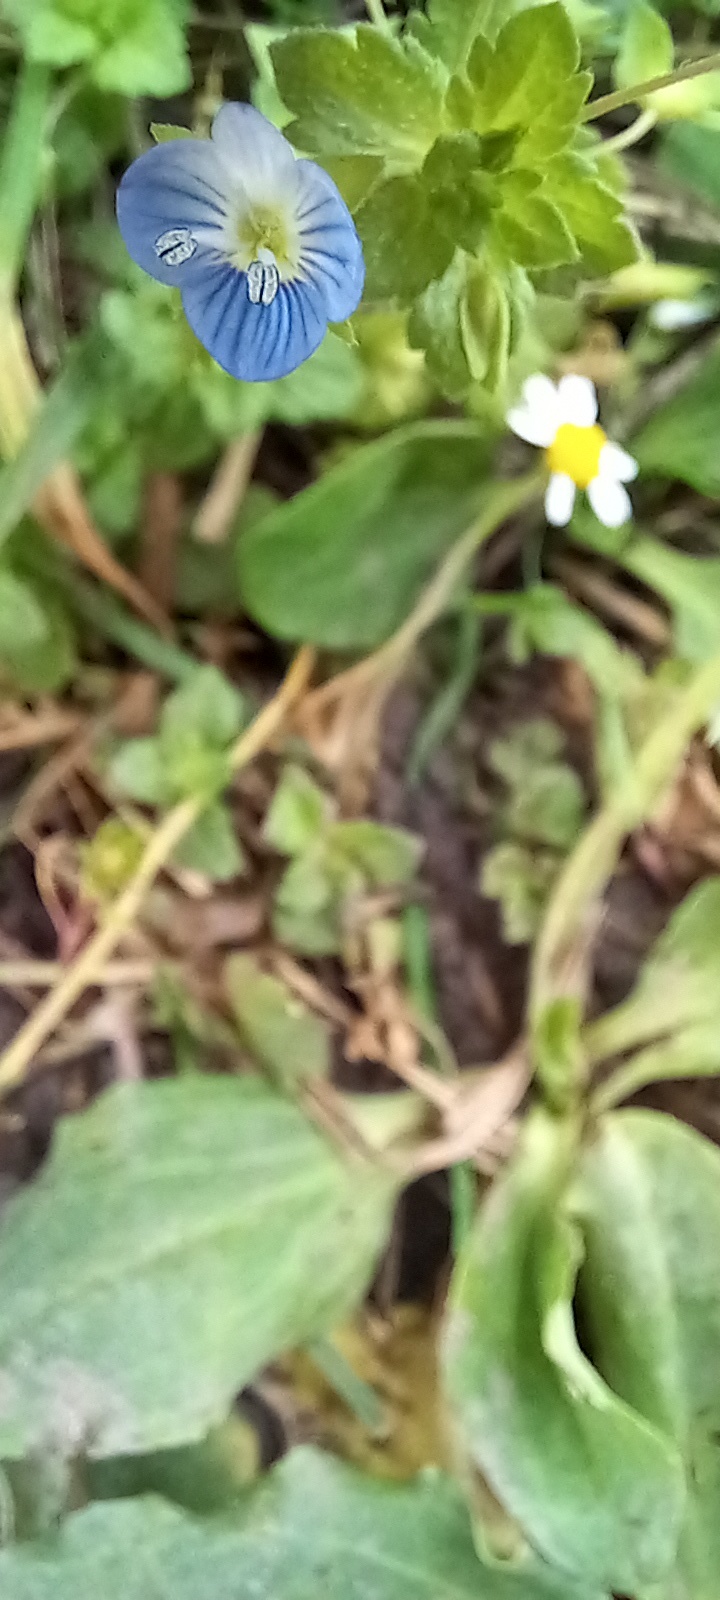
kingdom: Plantae
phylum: Tracheophyta
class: Magnoliopsida
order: Lamiales
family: Plantaginaceae
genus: Veronica
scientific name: Veronica persica
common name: Common field-speedwell
